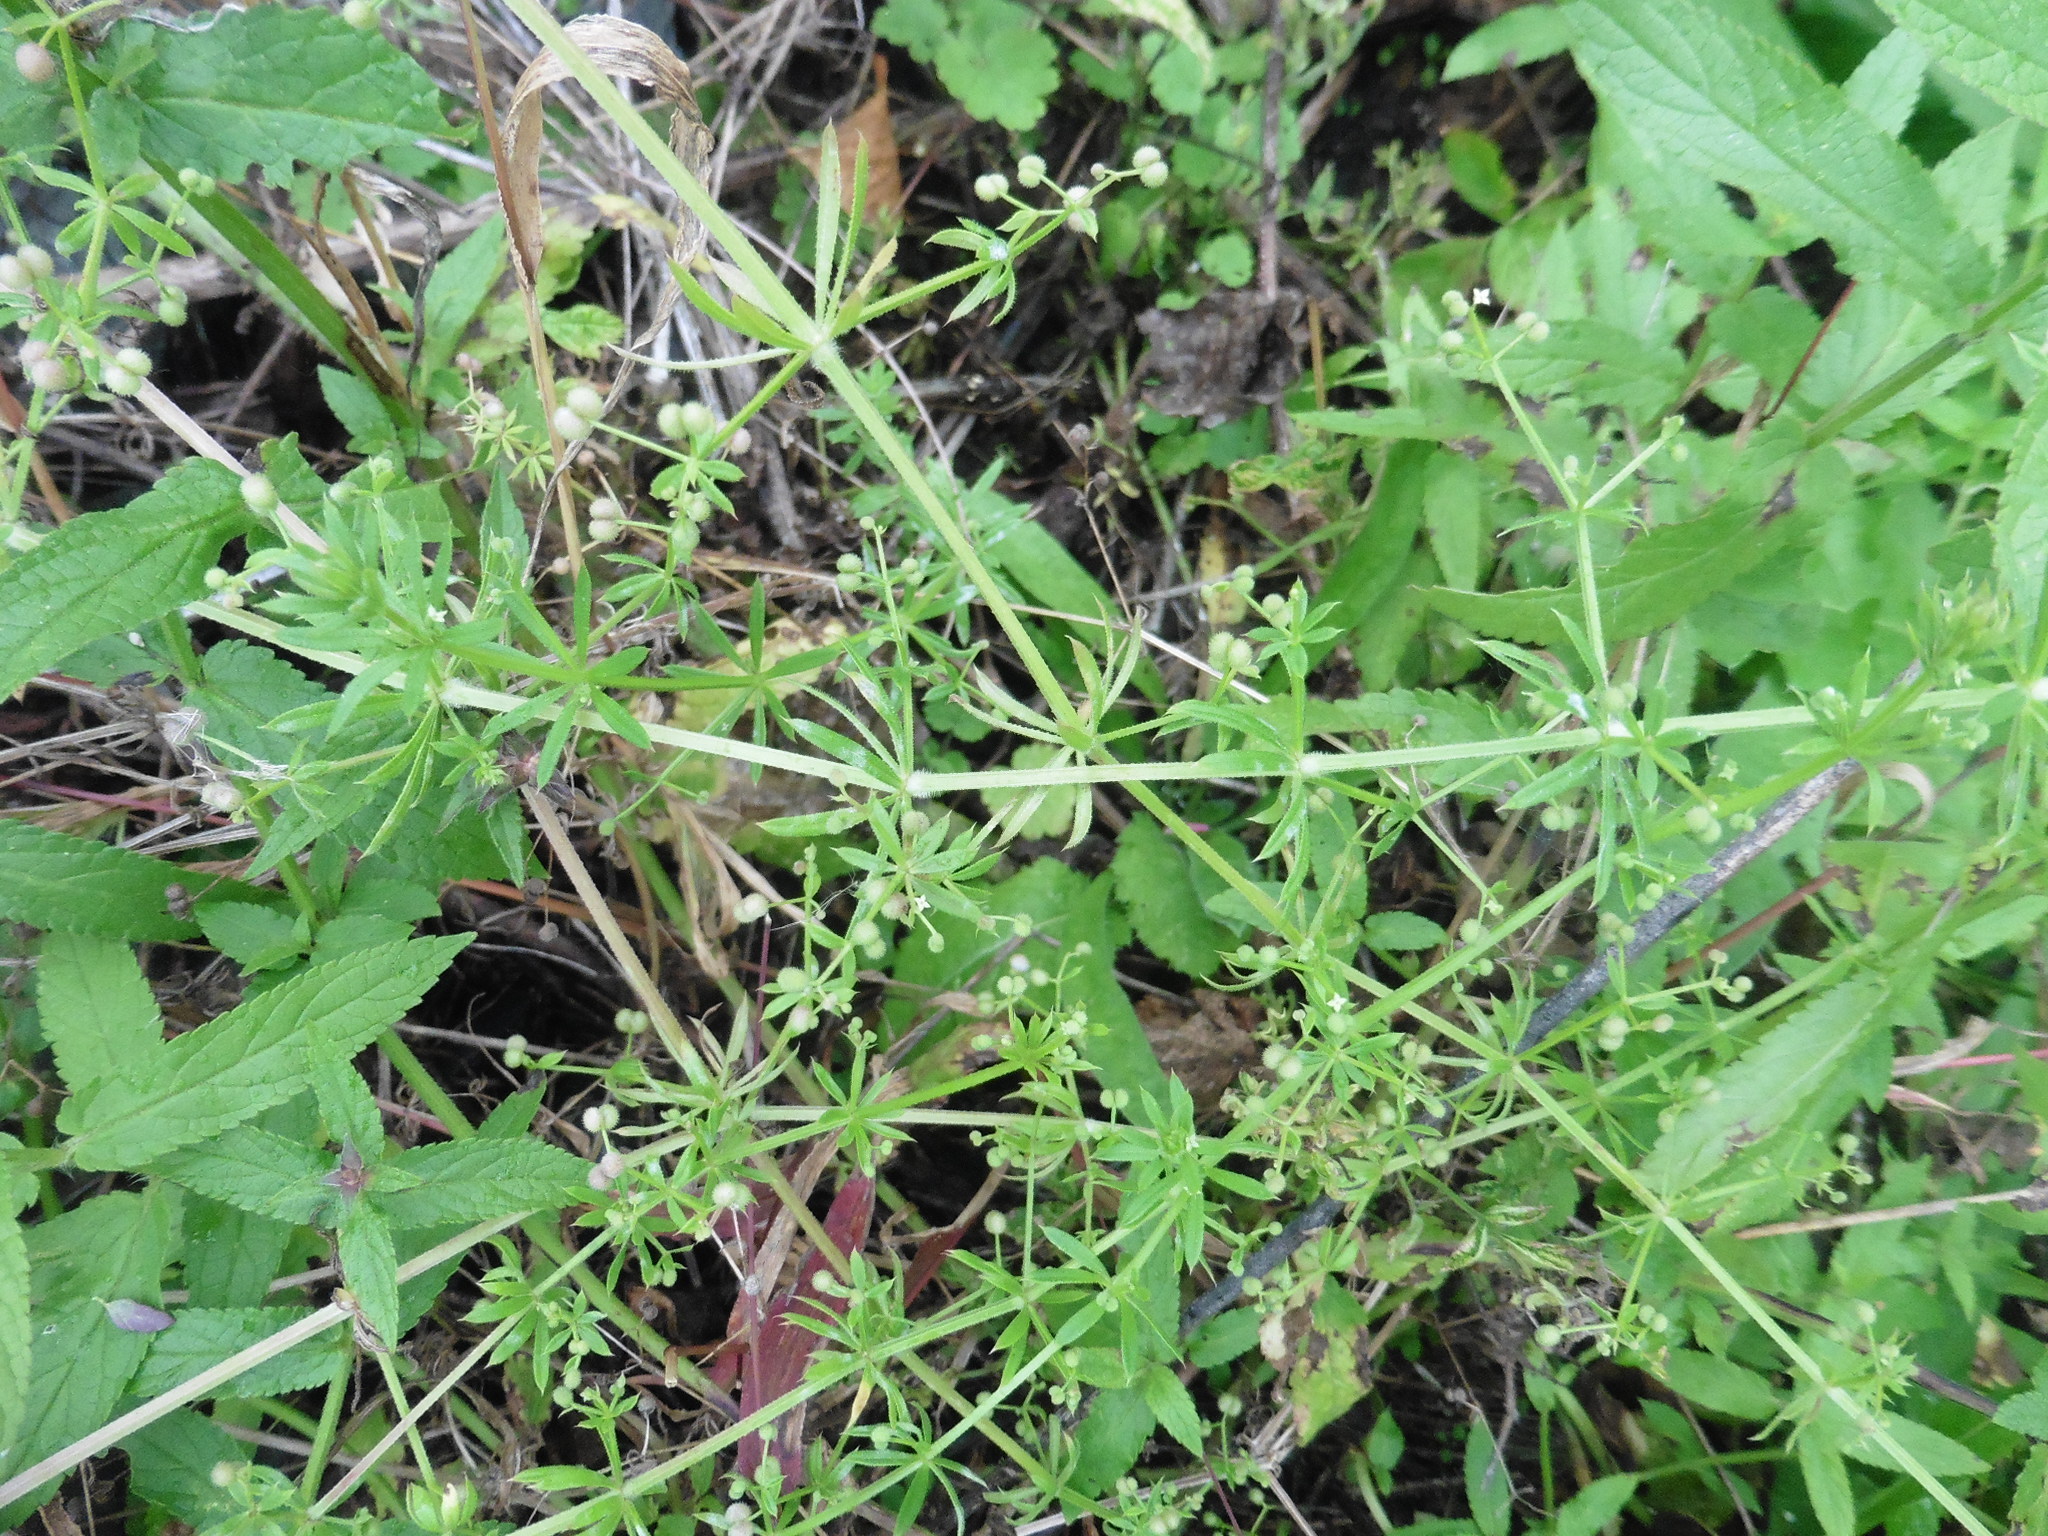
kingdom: Plantae
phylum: Tracheophyta
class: Magnoliopsida
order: Gentianales
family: Rubiaceae
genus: Galium
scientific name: Galium aparine
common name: Cleavers
